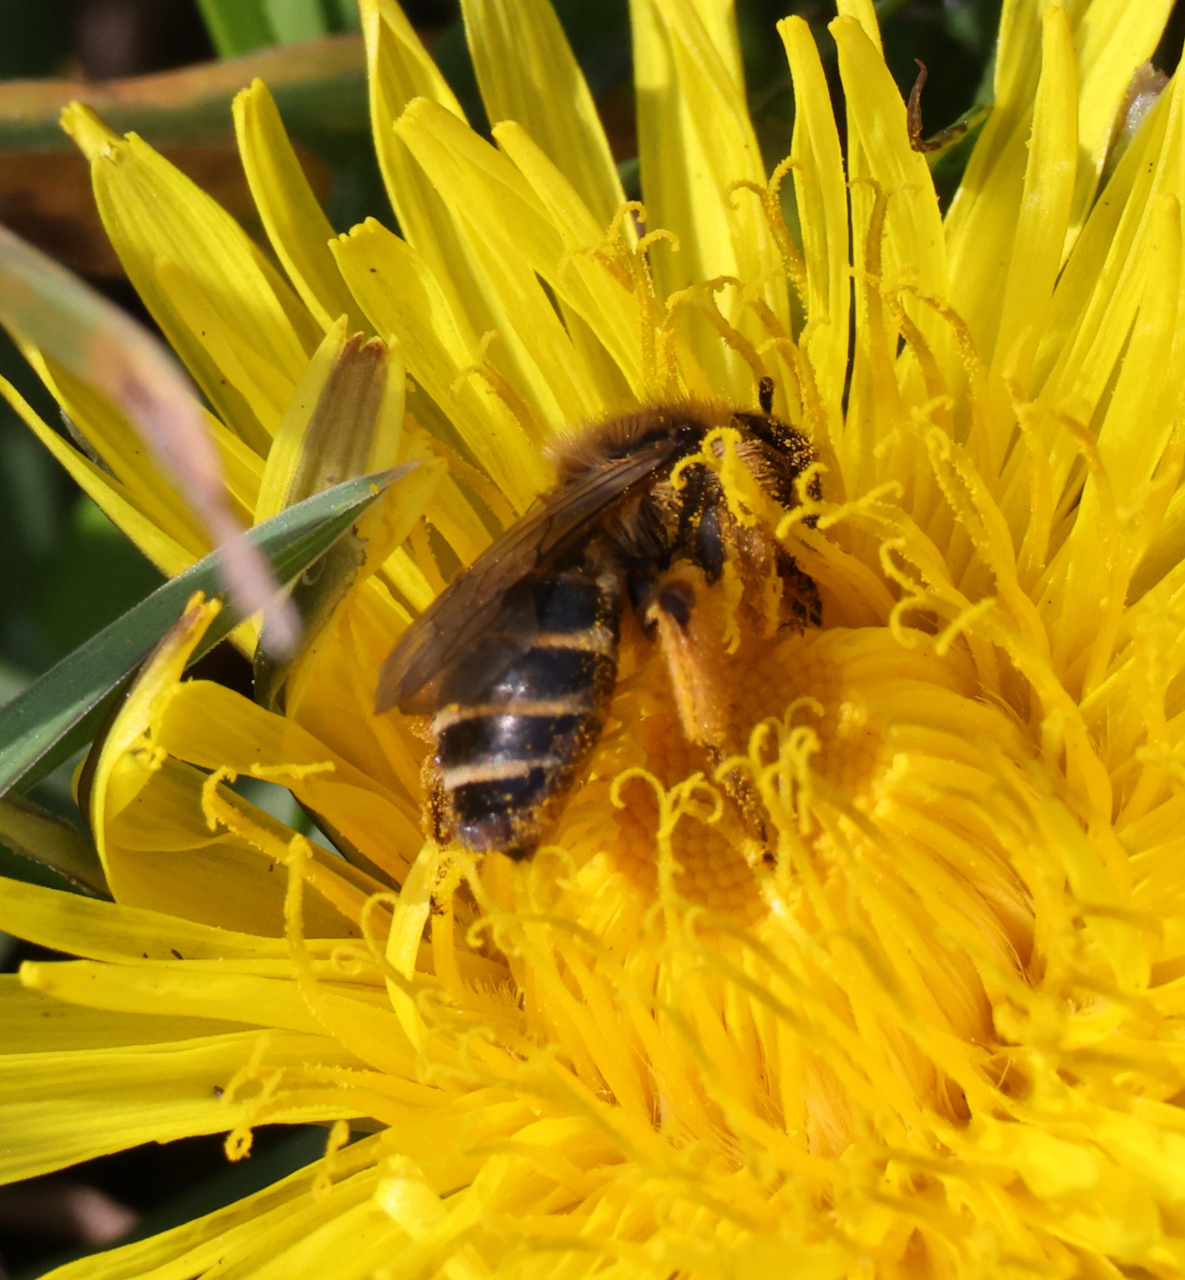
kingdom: Animalia
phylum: Arthropoda
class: Insecta
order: Hymenoptera
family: Andrenidae
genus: Andrena
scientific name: Andrena flavipes
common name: Yellow-legged mining bee
